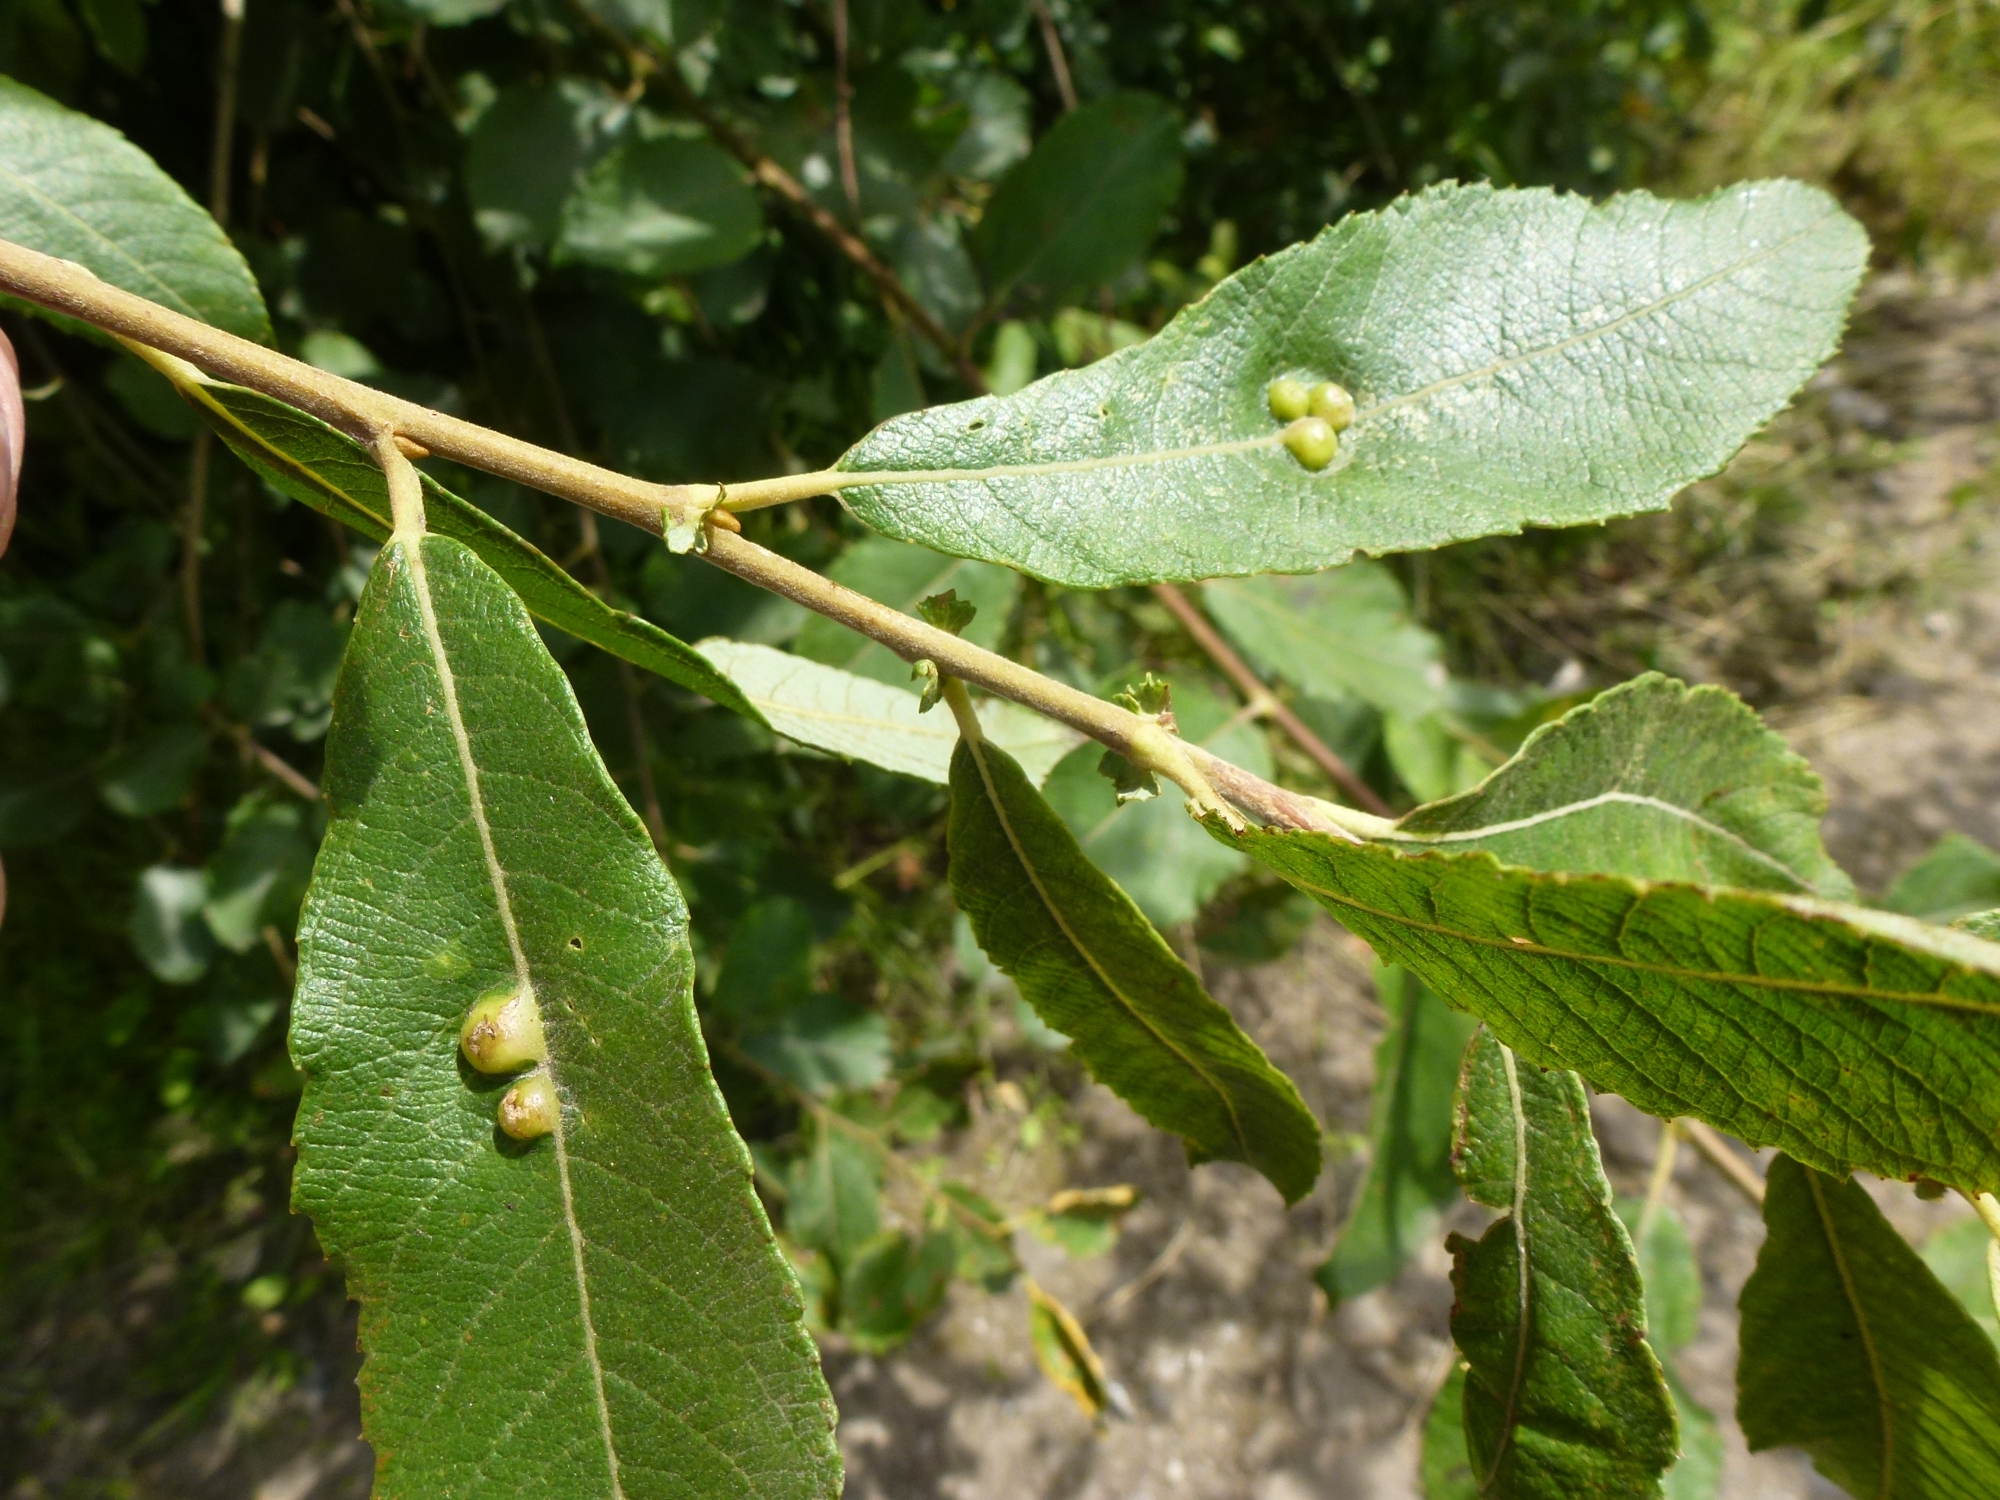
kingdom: Animalia
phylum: Arthropoda
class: Insecta
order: Hymenoptera
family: Tenthredinidae
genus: Pontania
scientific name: Pontania bridgmanii
